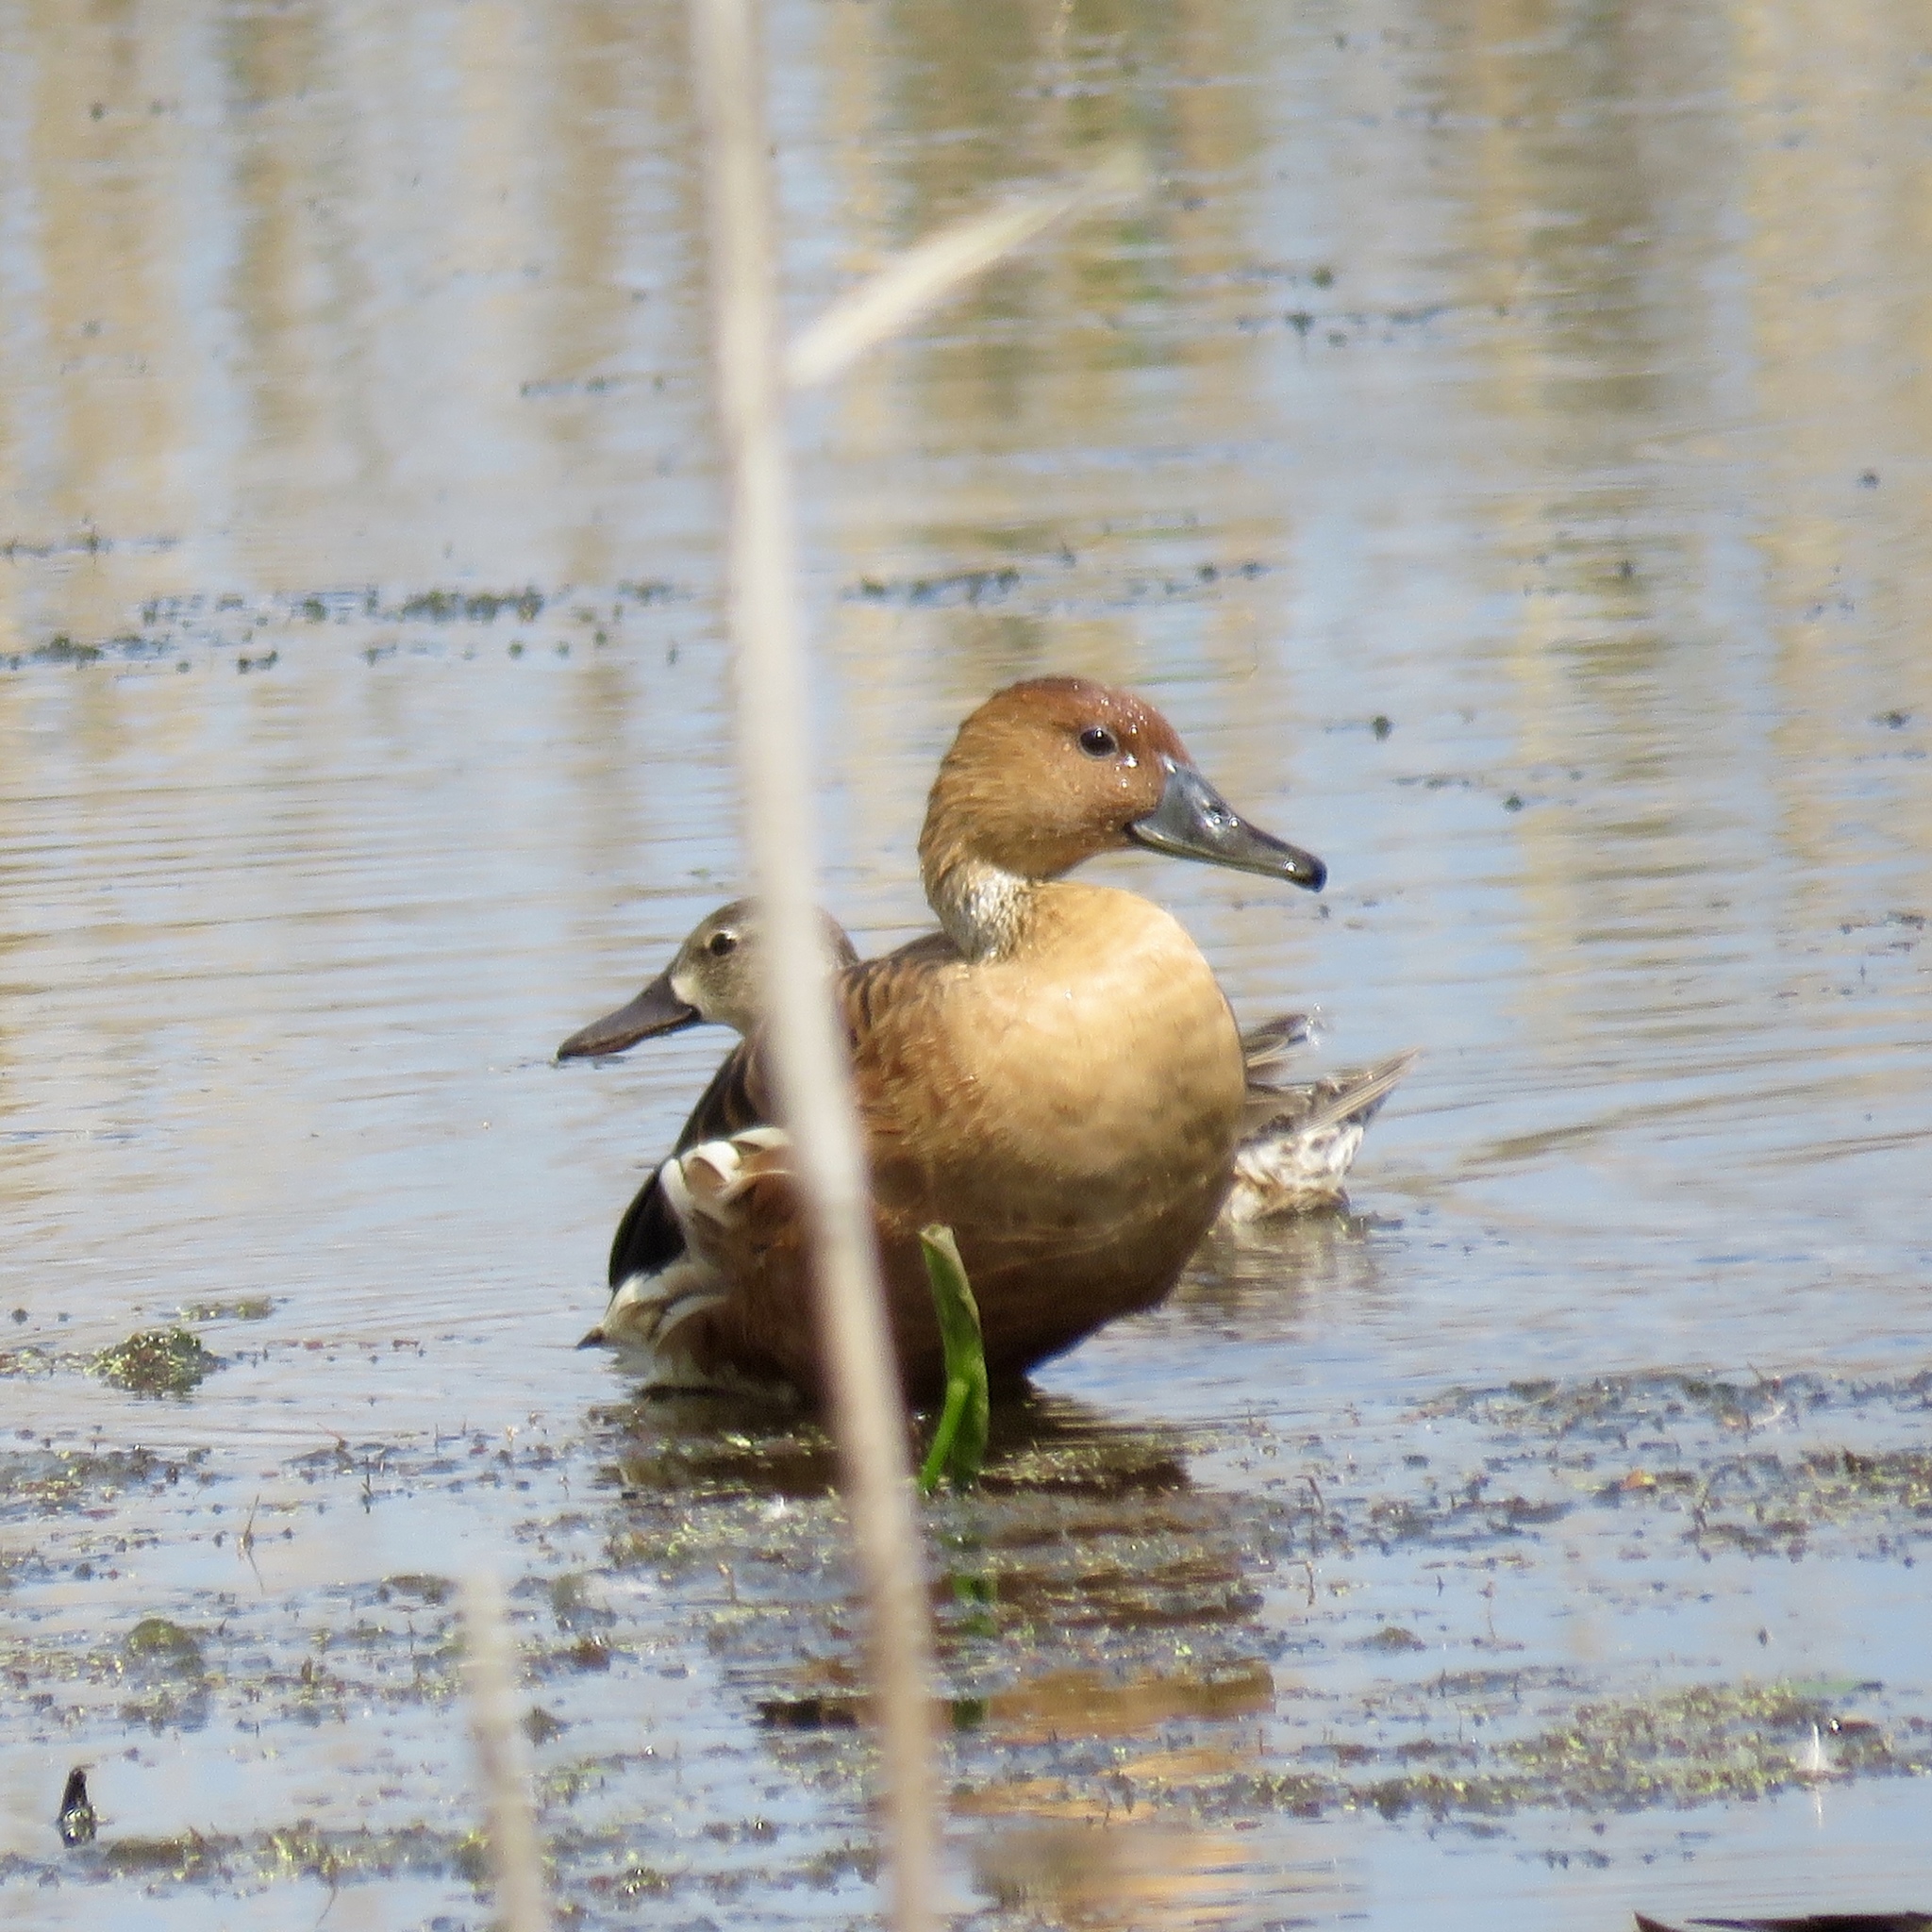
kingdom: Animalia
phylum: Chordata
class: Aves
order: Anseriformes
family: Anatidae
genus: Dendrocygna
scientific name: Dendrocygna bicolor
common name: Fulvous whistling duck
